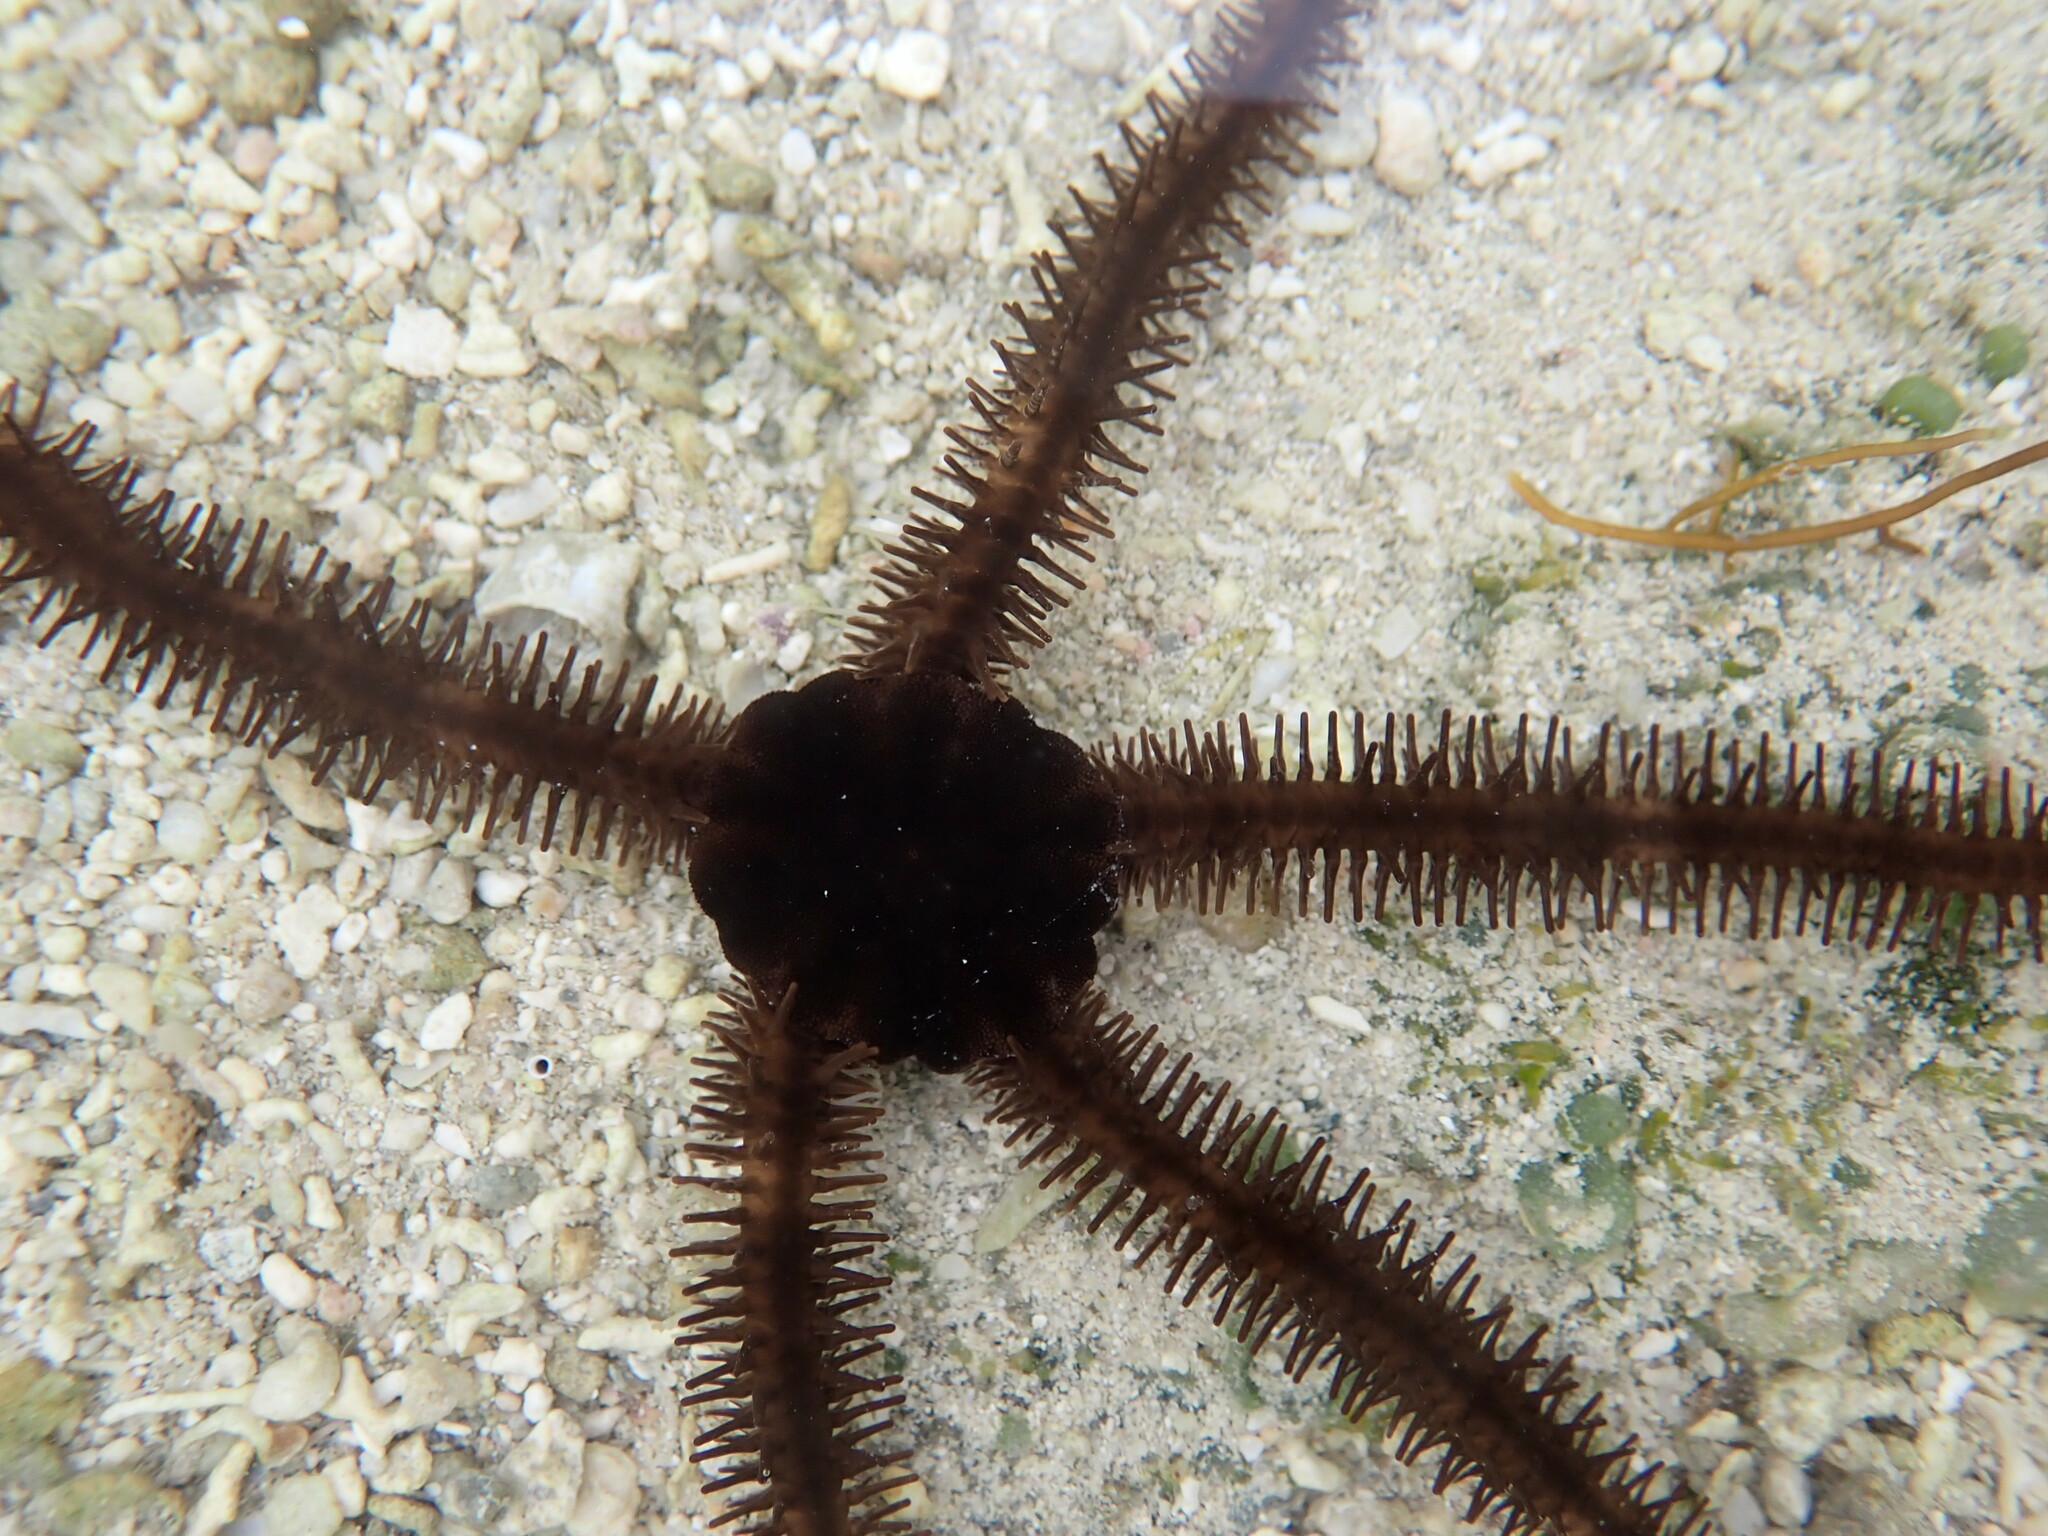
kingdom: Animalia
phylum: Echinodermata
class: Ophiuroidea
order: Ophiacanthida
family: Ophiocomidae
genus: Ophiocoma
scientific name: Ophiocoma scolopendrina
